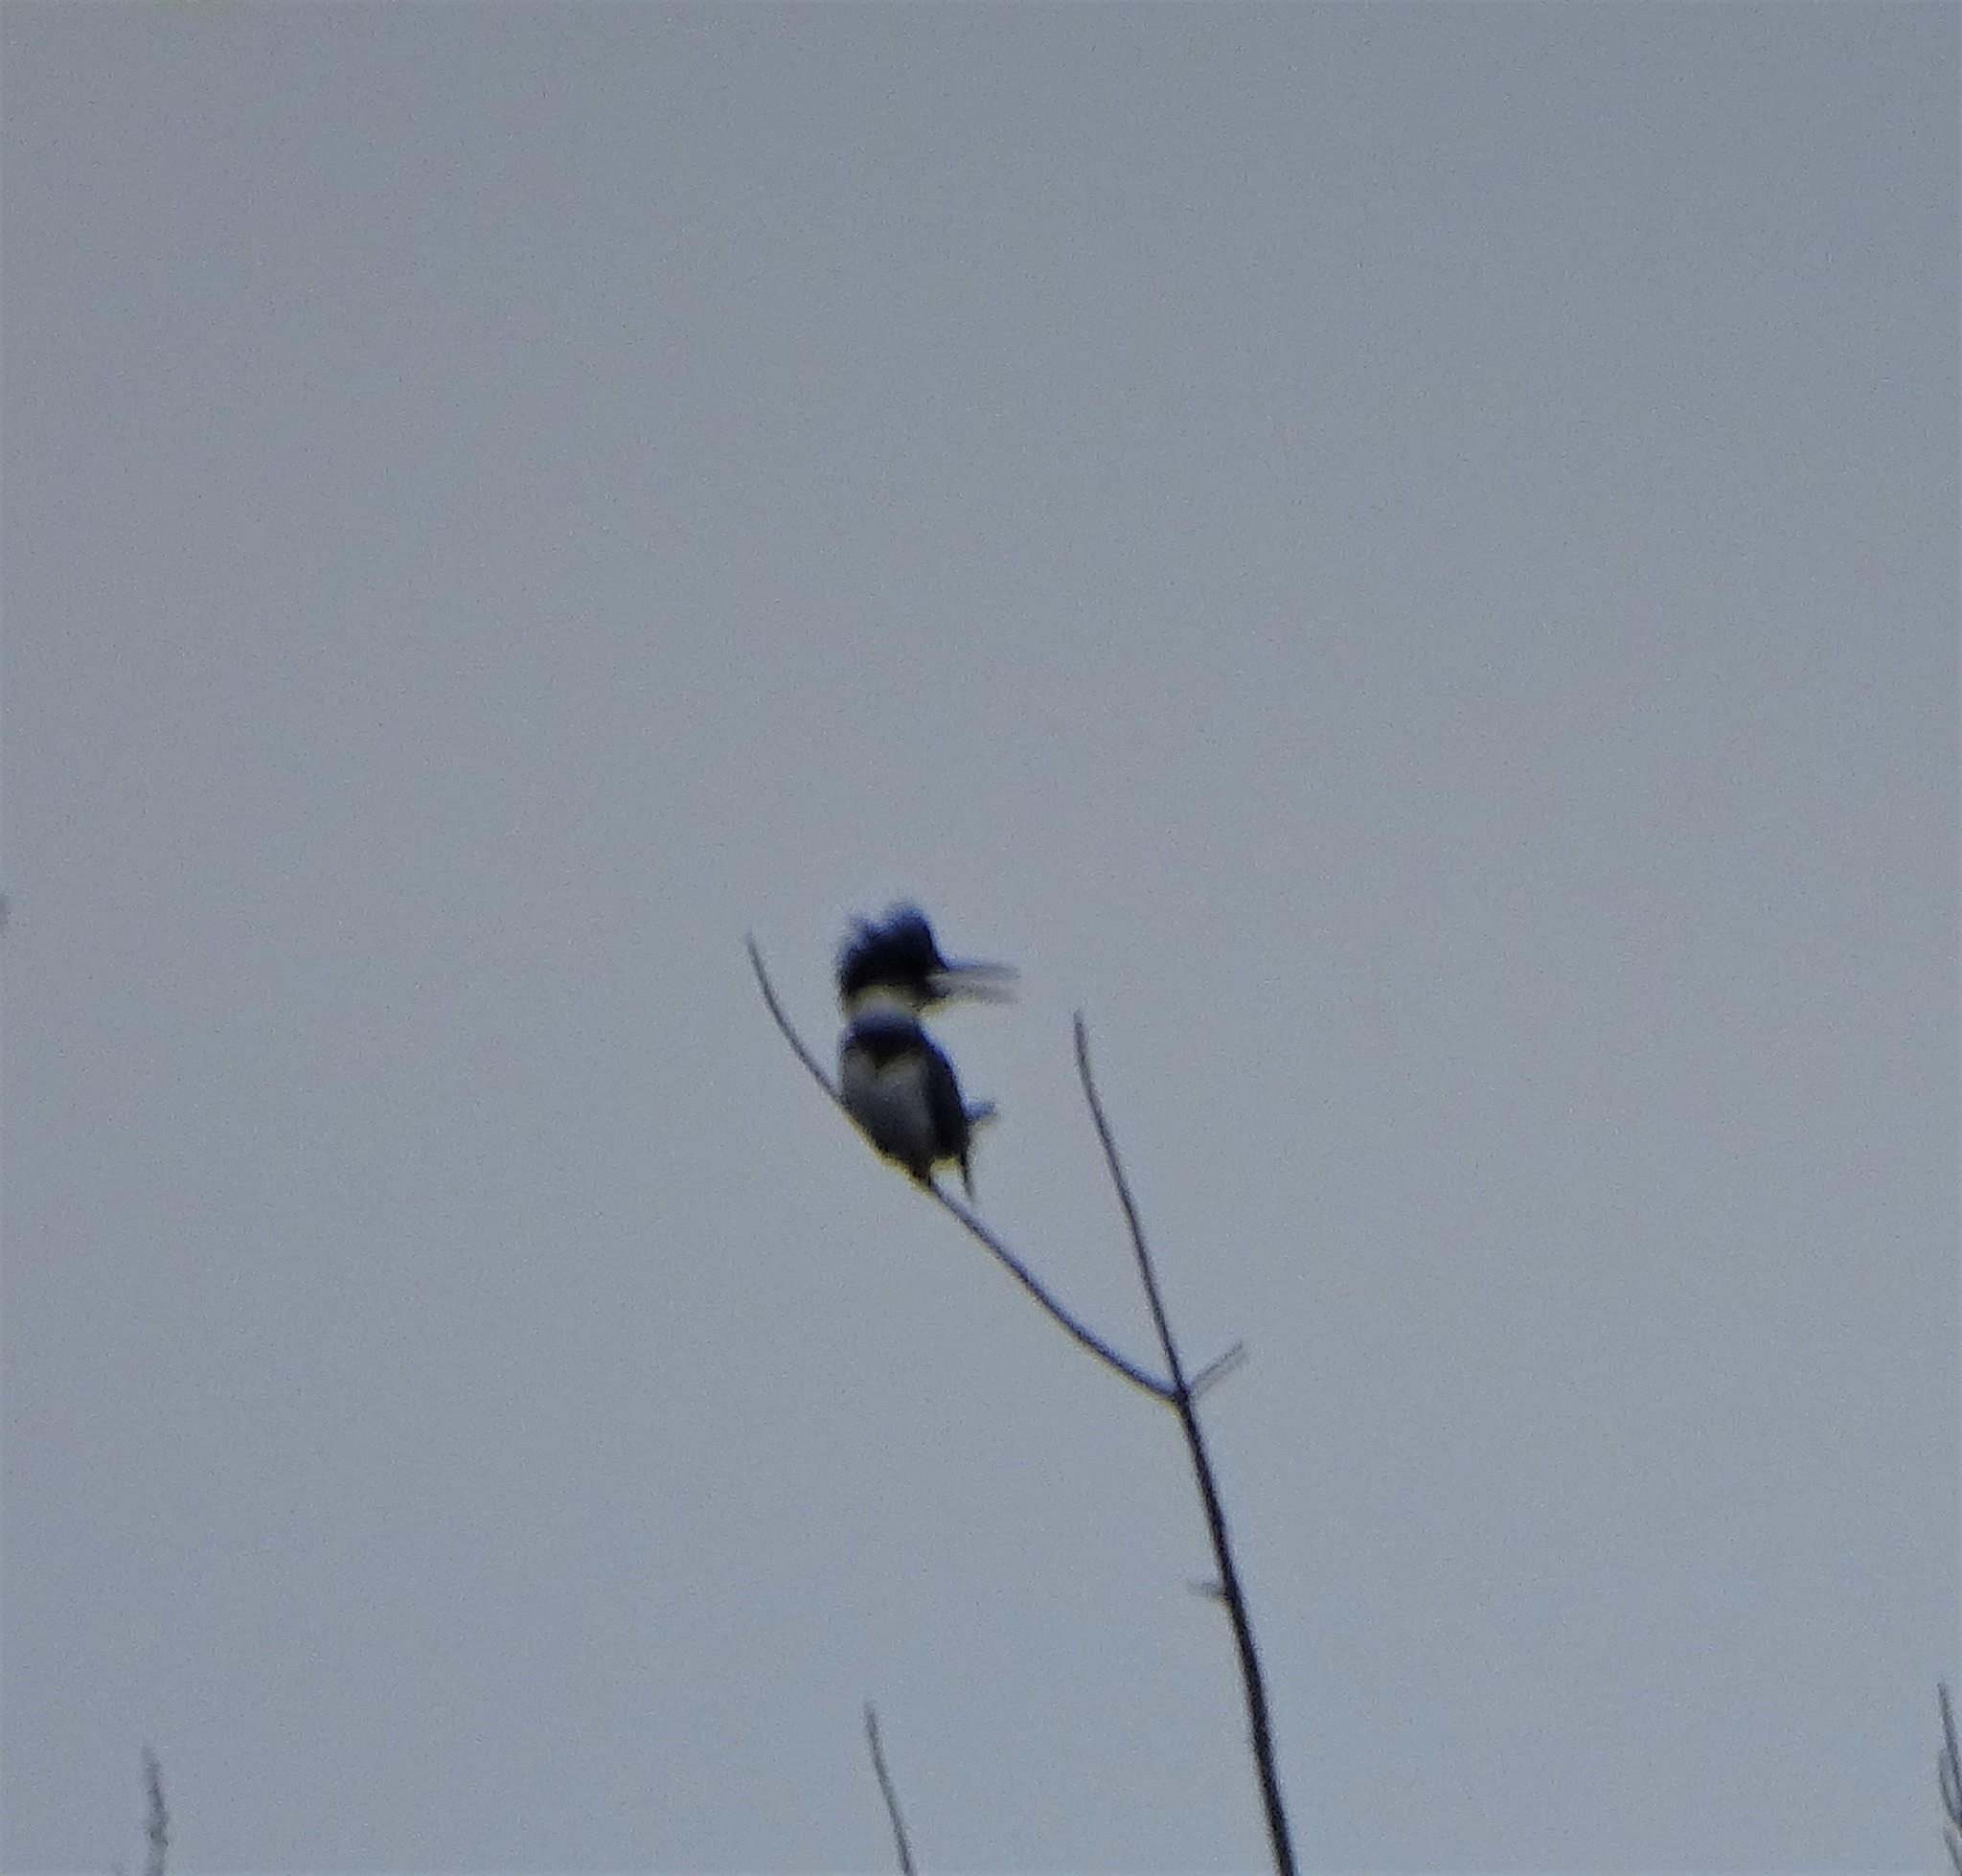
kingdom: Animalia
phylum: Chordata
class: Aves
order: Coraciiformes
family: Alcedinidae
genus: Megaceryle
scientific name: Megaceryle alcyon
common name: Belted kingfisher
